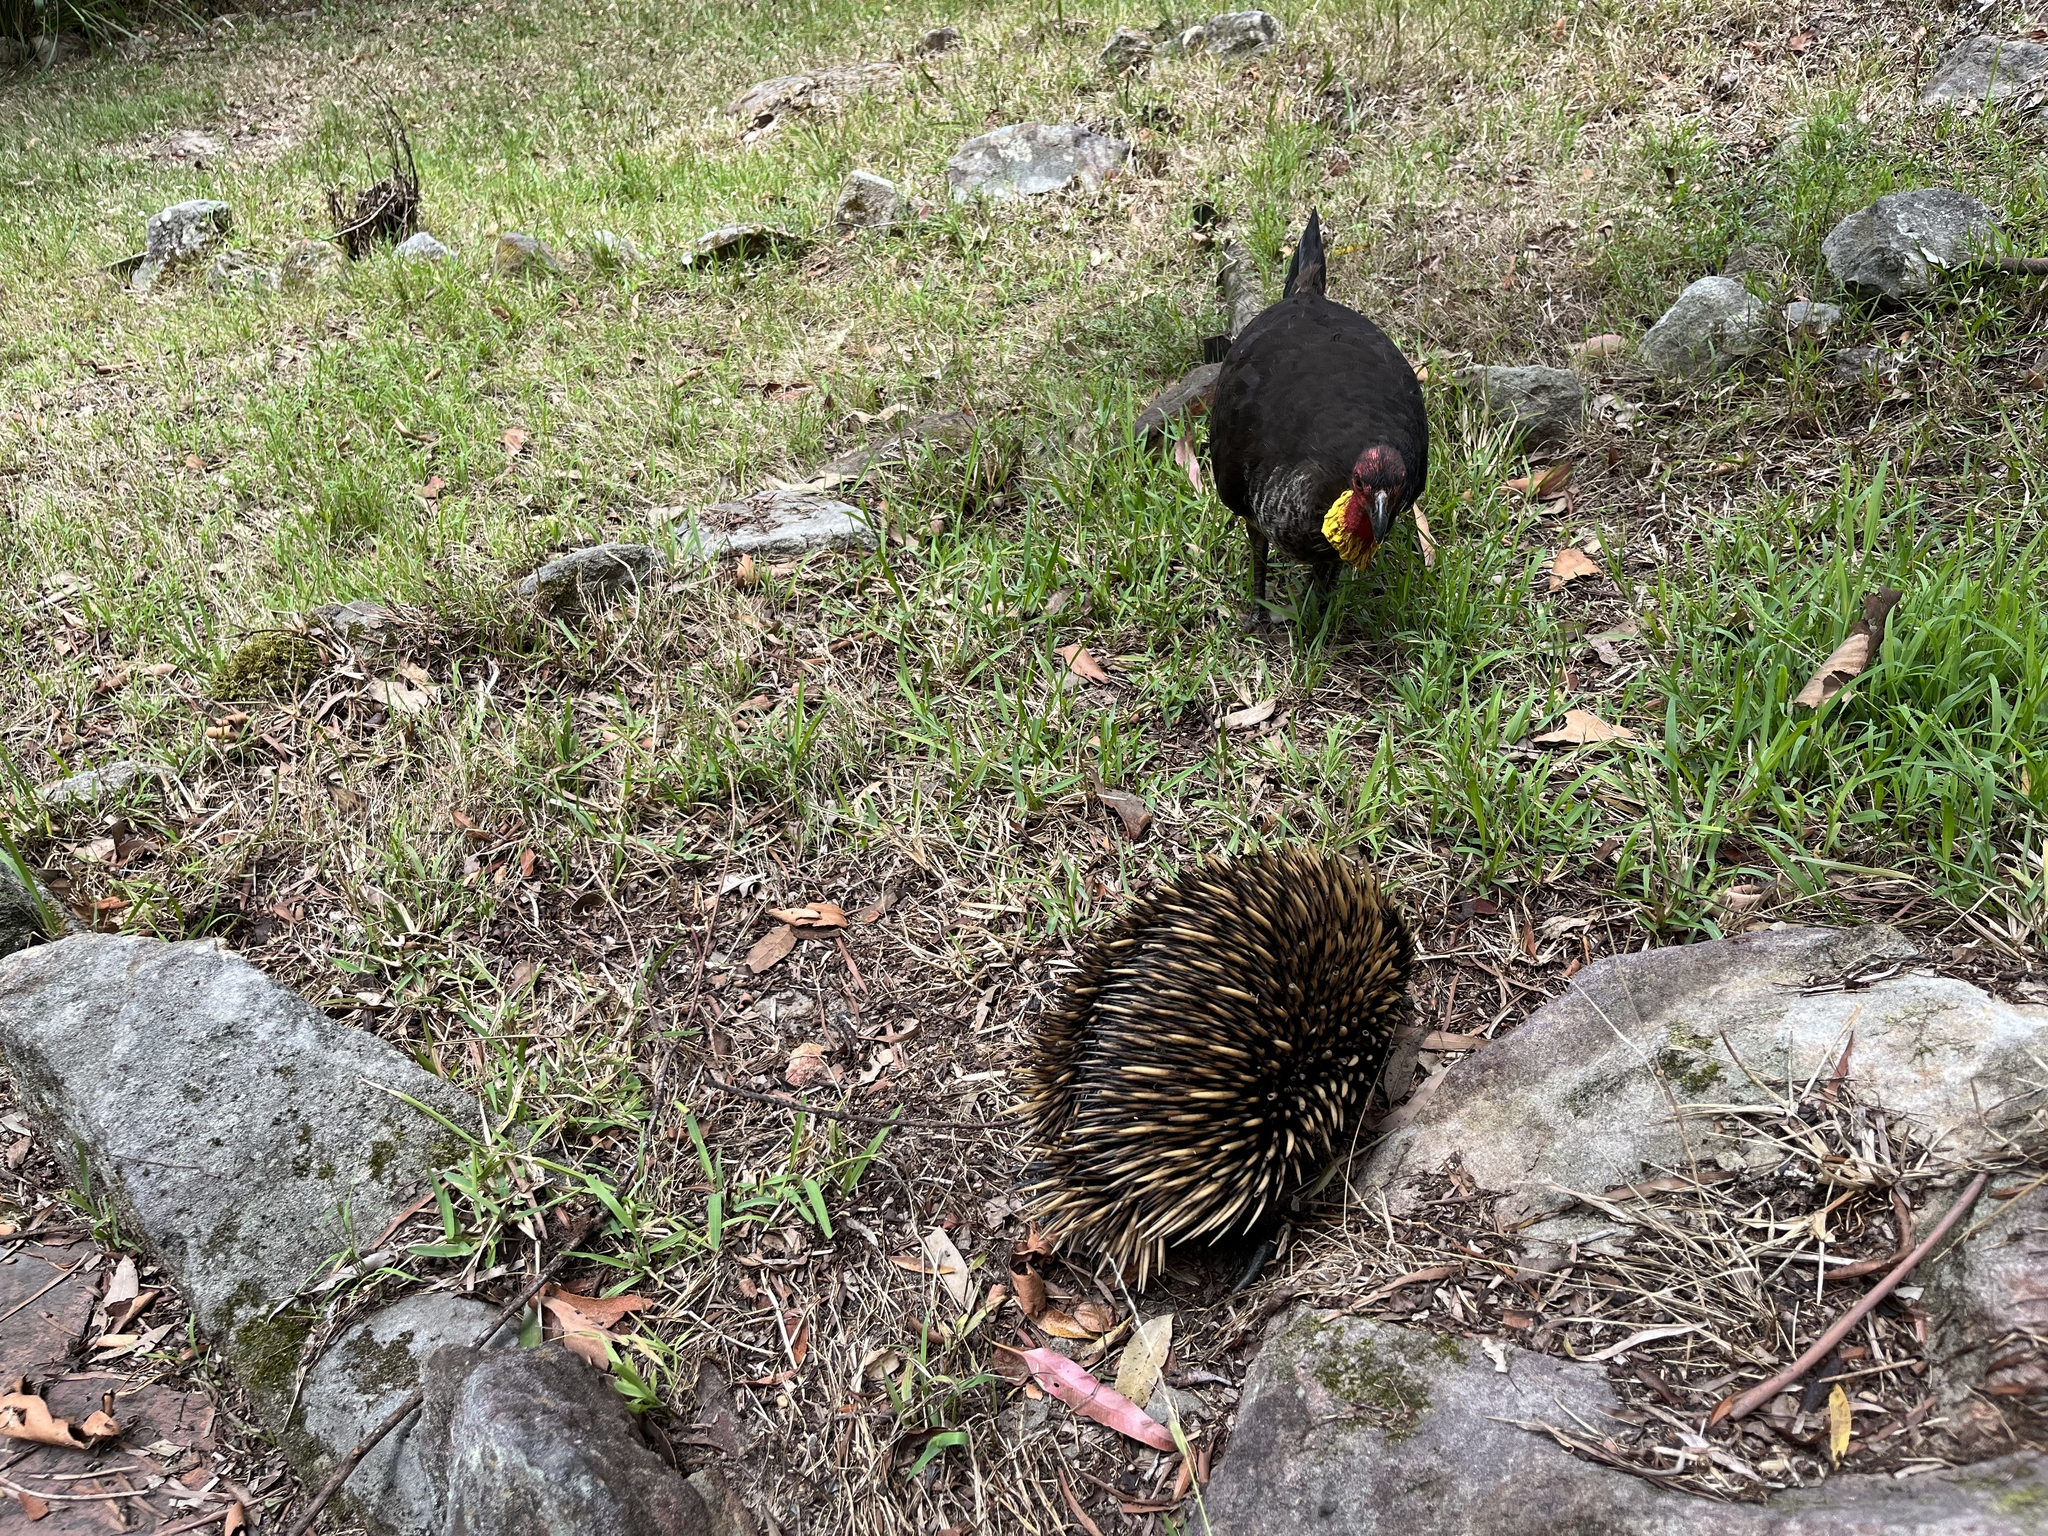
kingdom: Animalia
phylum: Chordata
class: Mammalia
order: Monotremata
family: Tachyglossidae
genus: Tachyglossus
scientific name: Tachyglossus aculeatus
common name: Short-beaked echidna
